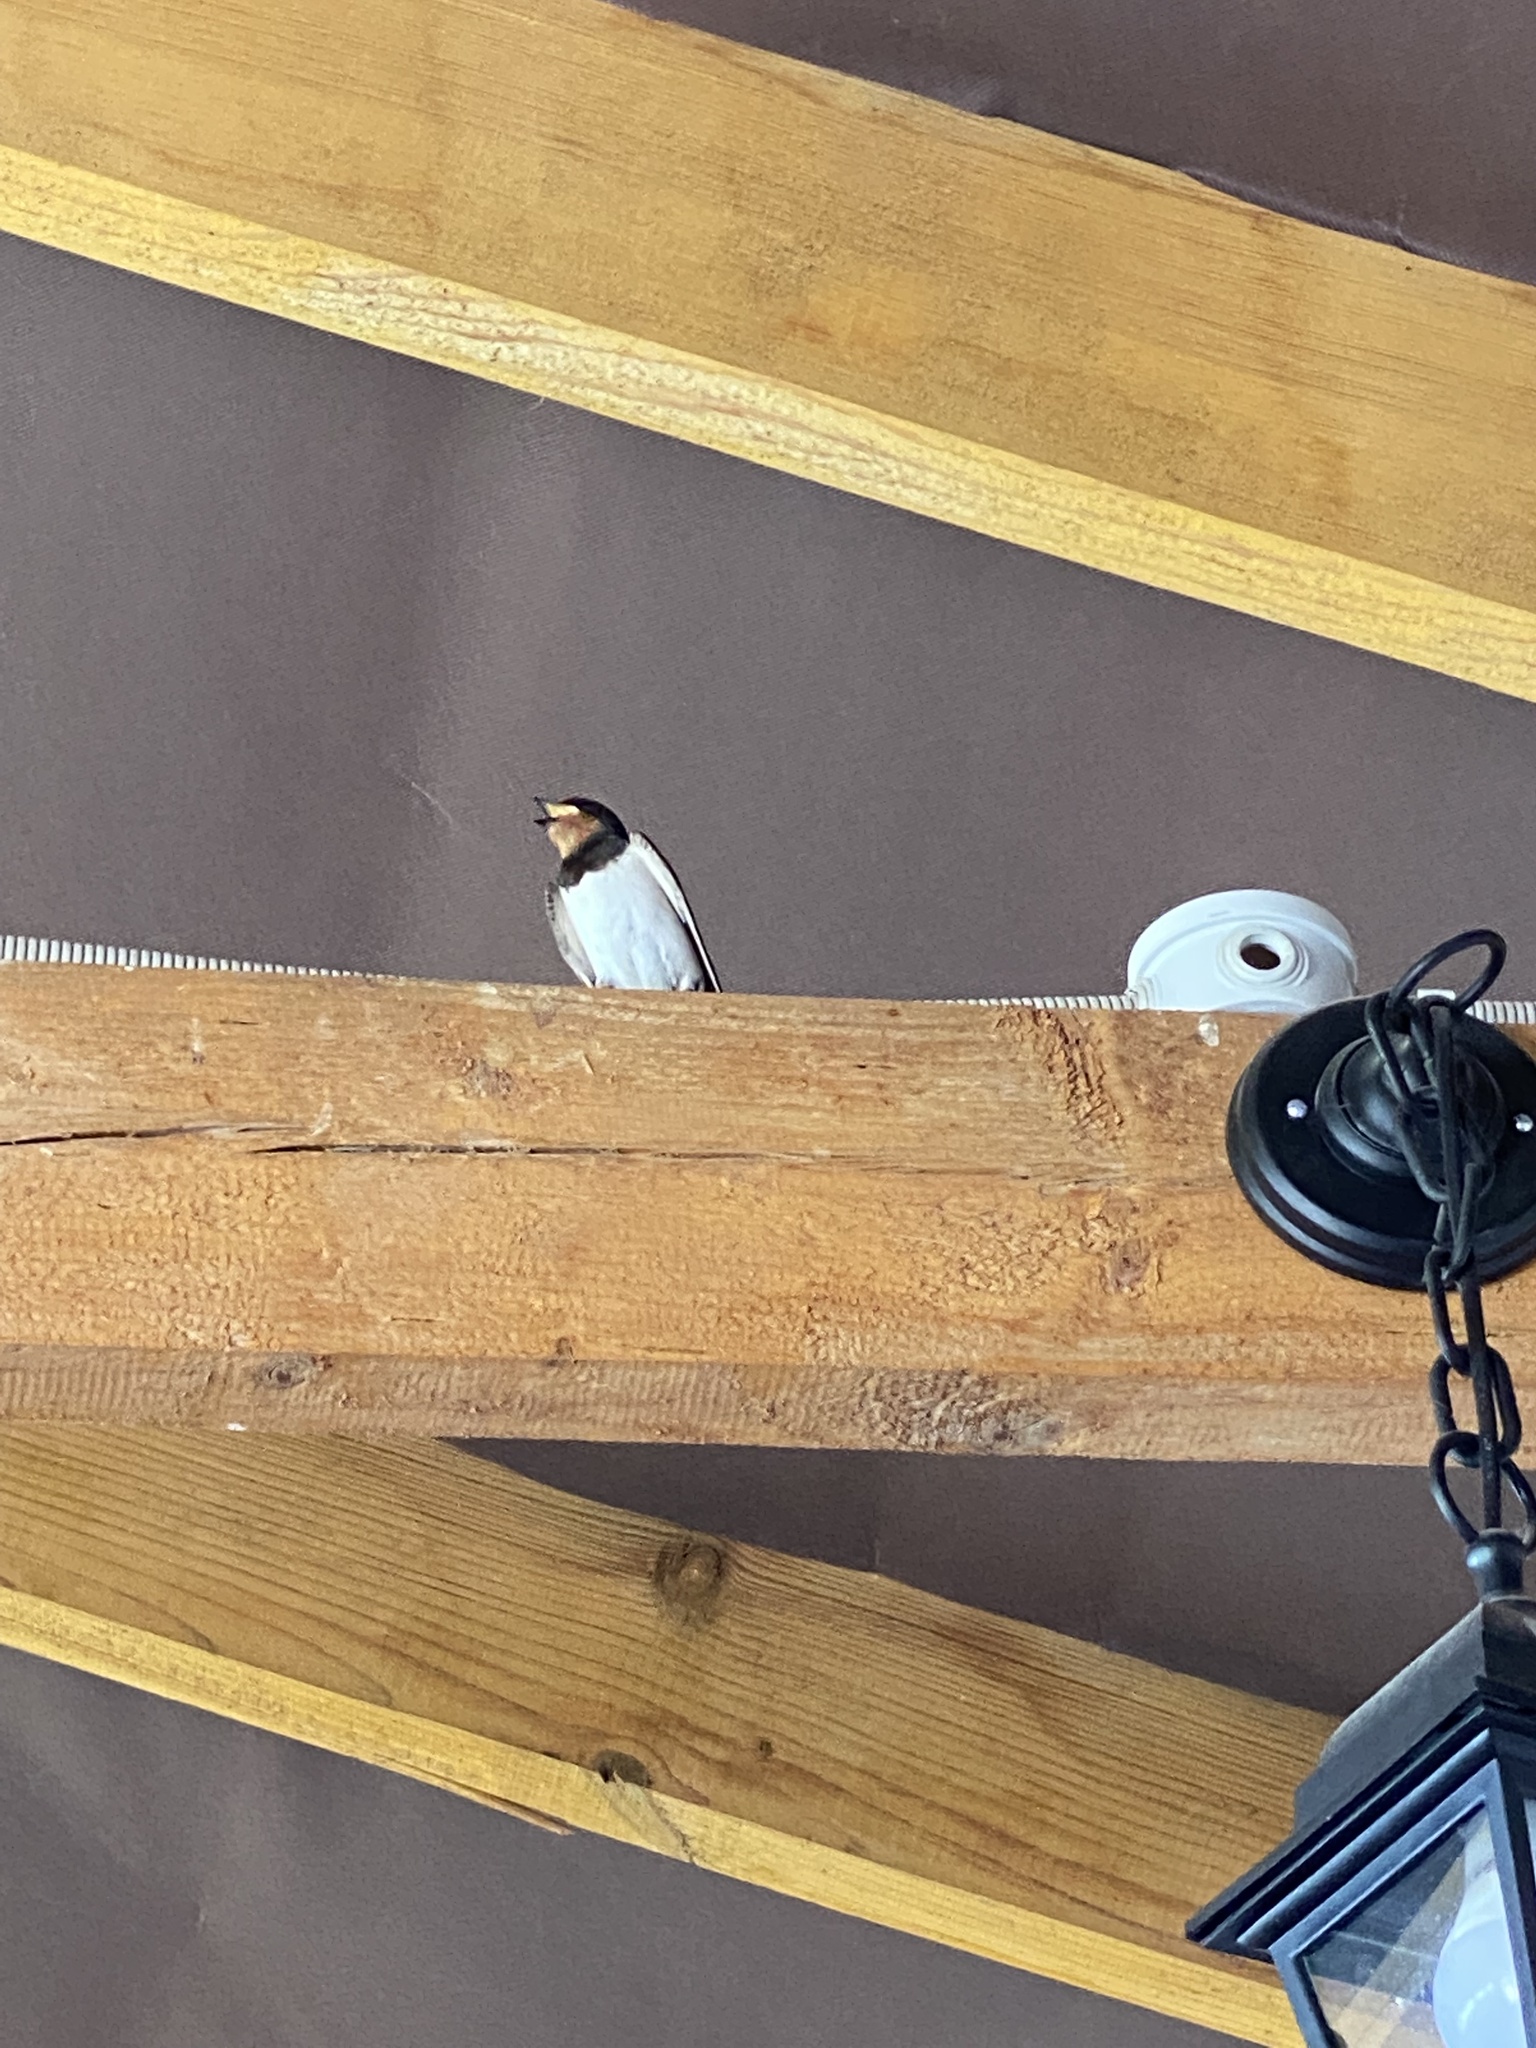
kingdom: Animalia
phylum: Chordata
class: Aves
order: Passeriformes
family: Hirundinidae
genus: Hirundo
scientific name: Hirundo rustica
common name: Barn swallow
